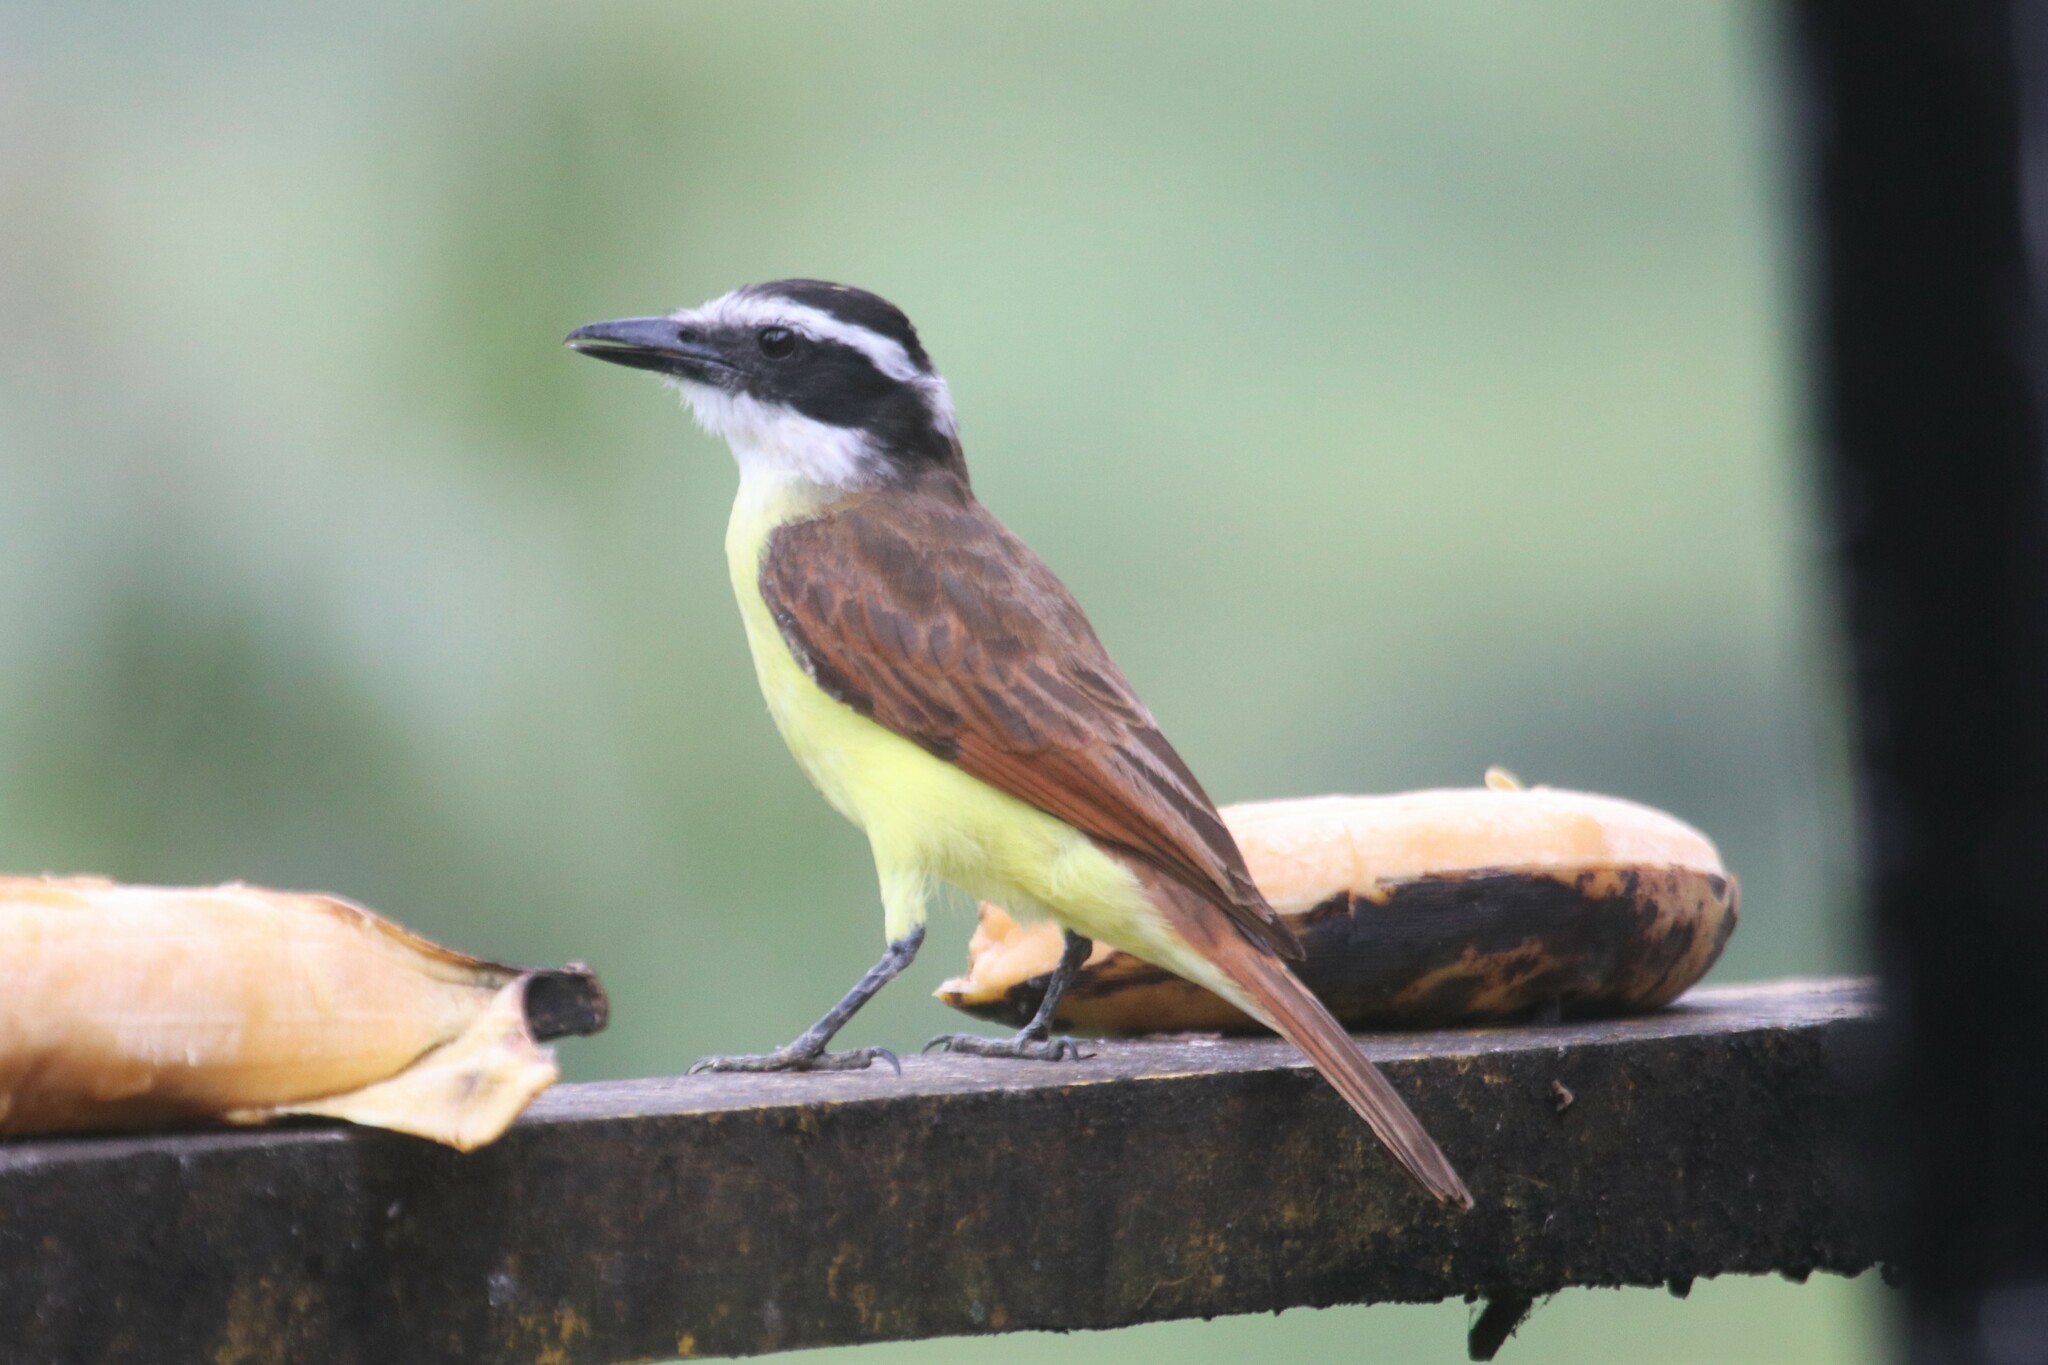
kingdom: Animalia
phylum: Chordata
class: Aves
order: Passeriformes
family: Tyrannidae
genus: Pitangus
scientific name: Pitangus sulphuratus
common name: Great kiskadee
